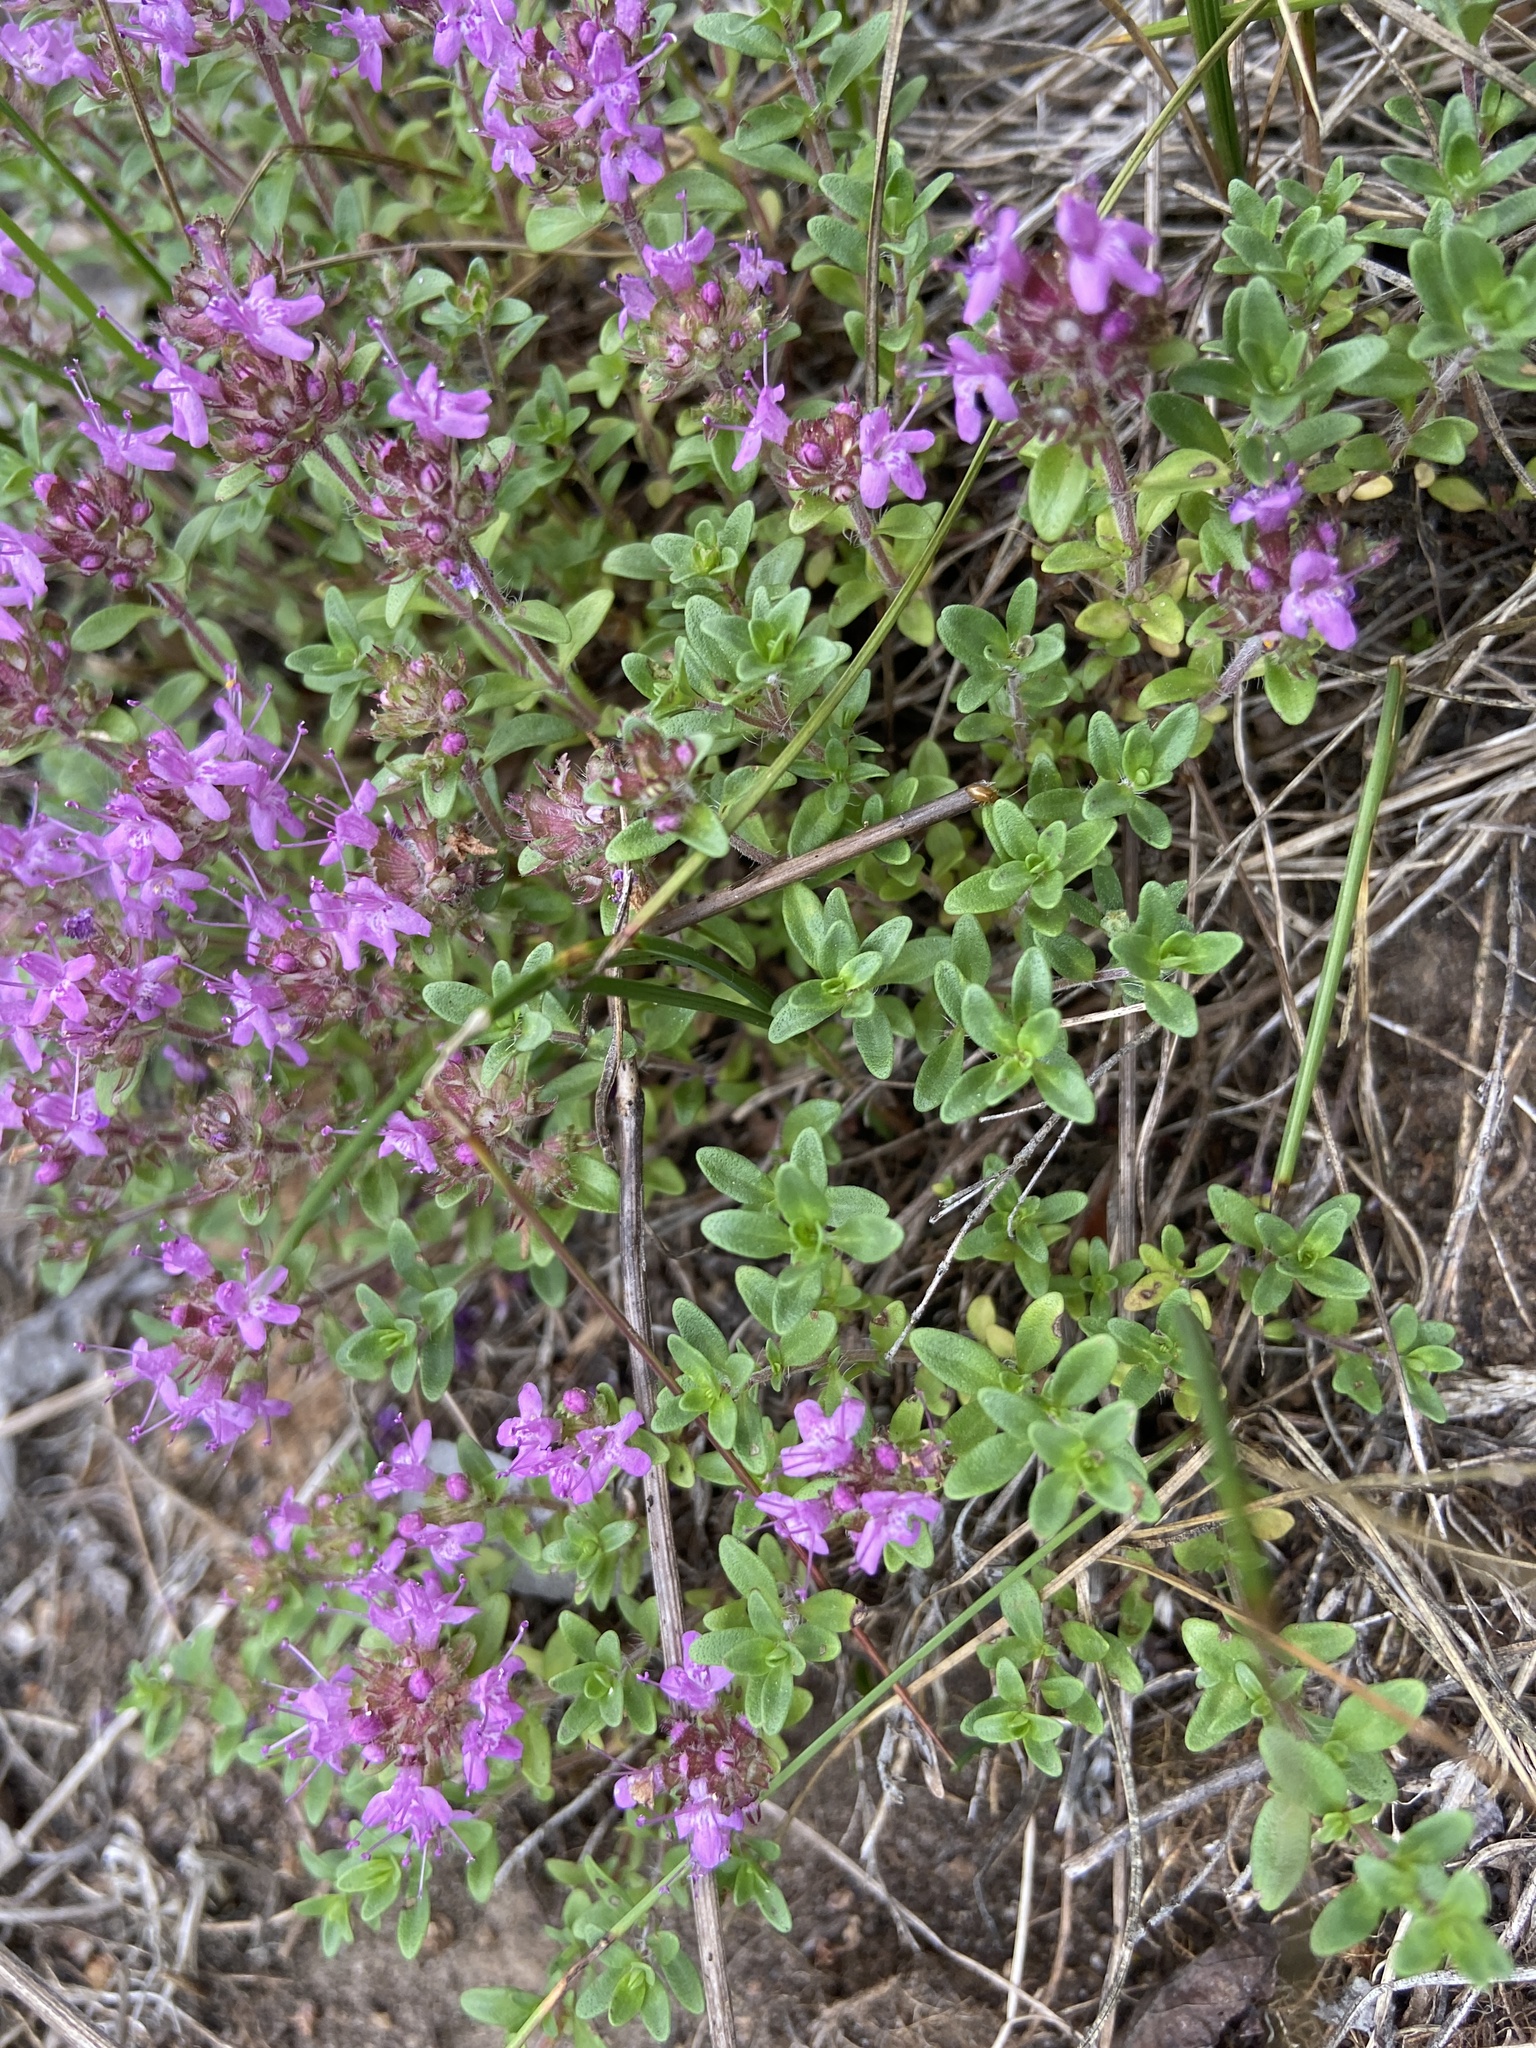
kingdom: Plantae
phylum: Tracheophyta
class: Magnoliopsida
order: Lamiales
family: Lamiaceae
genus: Thymus
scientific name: Thymus serpyllum
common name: Breckland thyme
